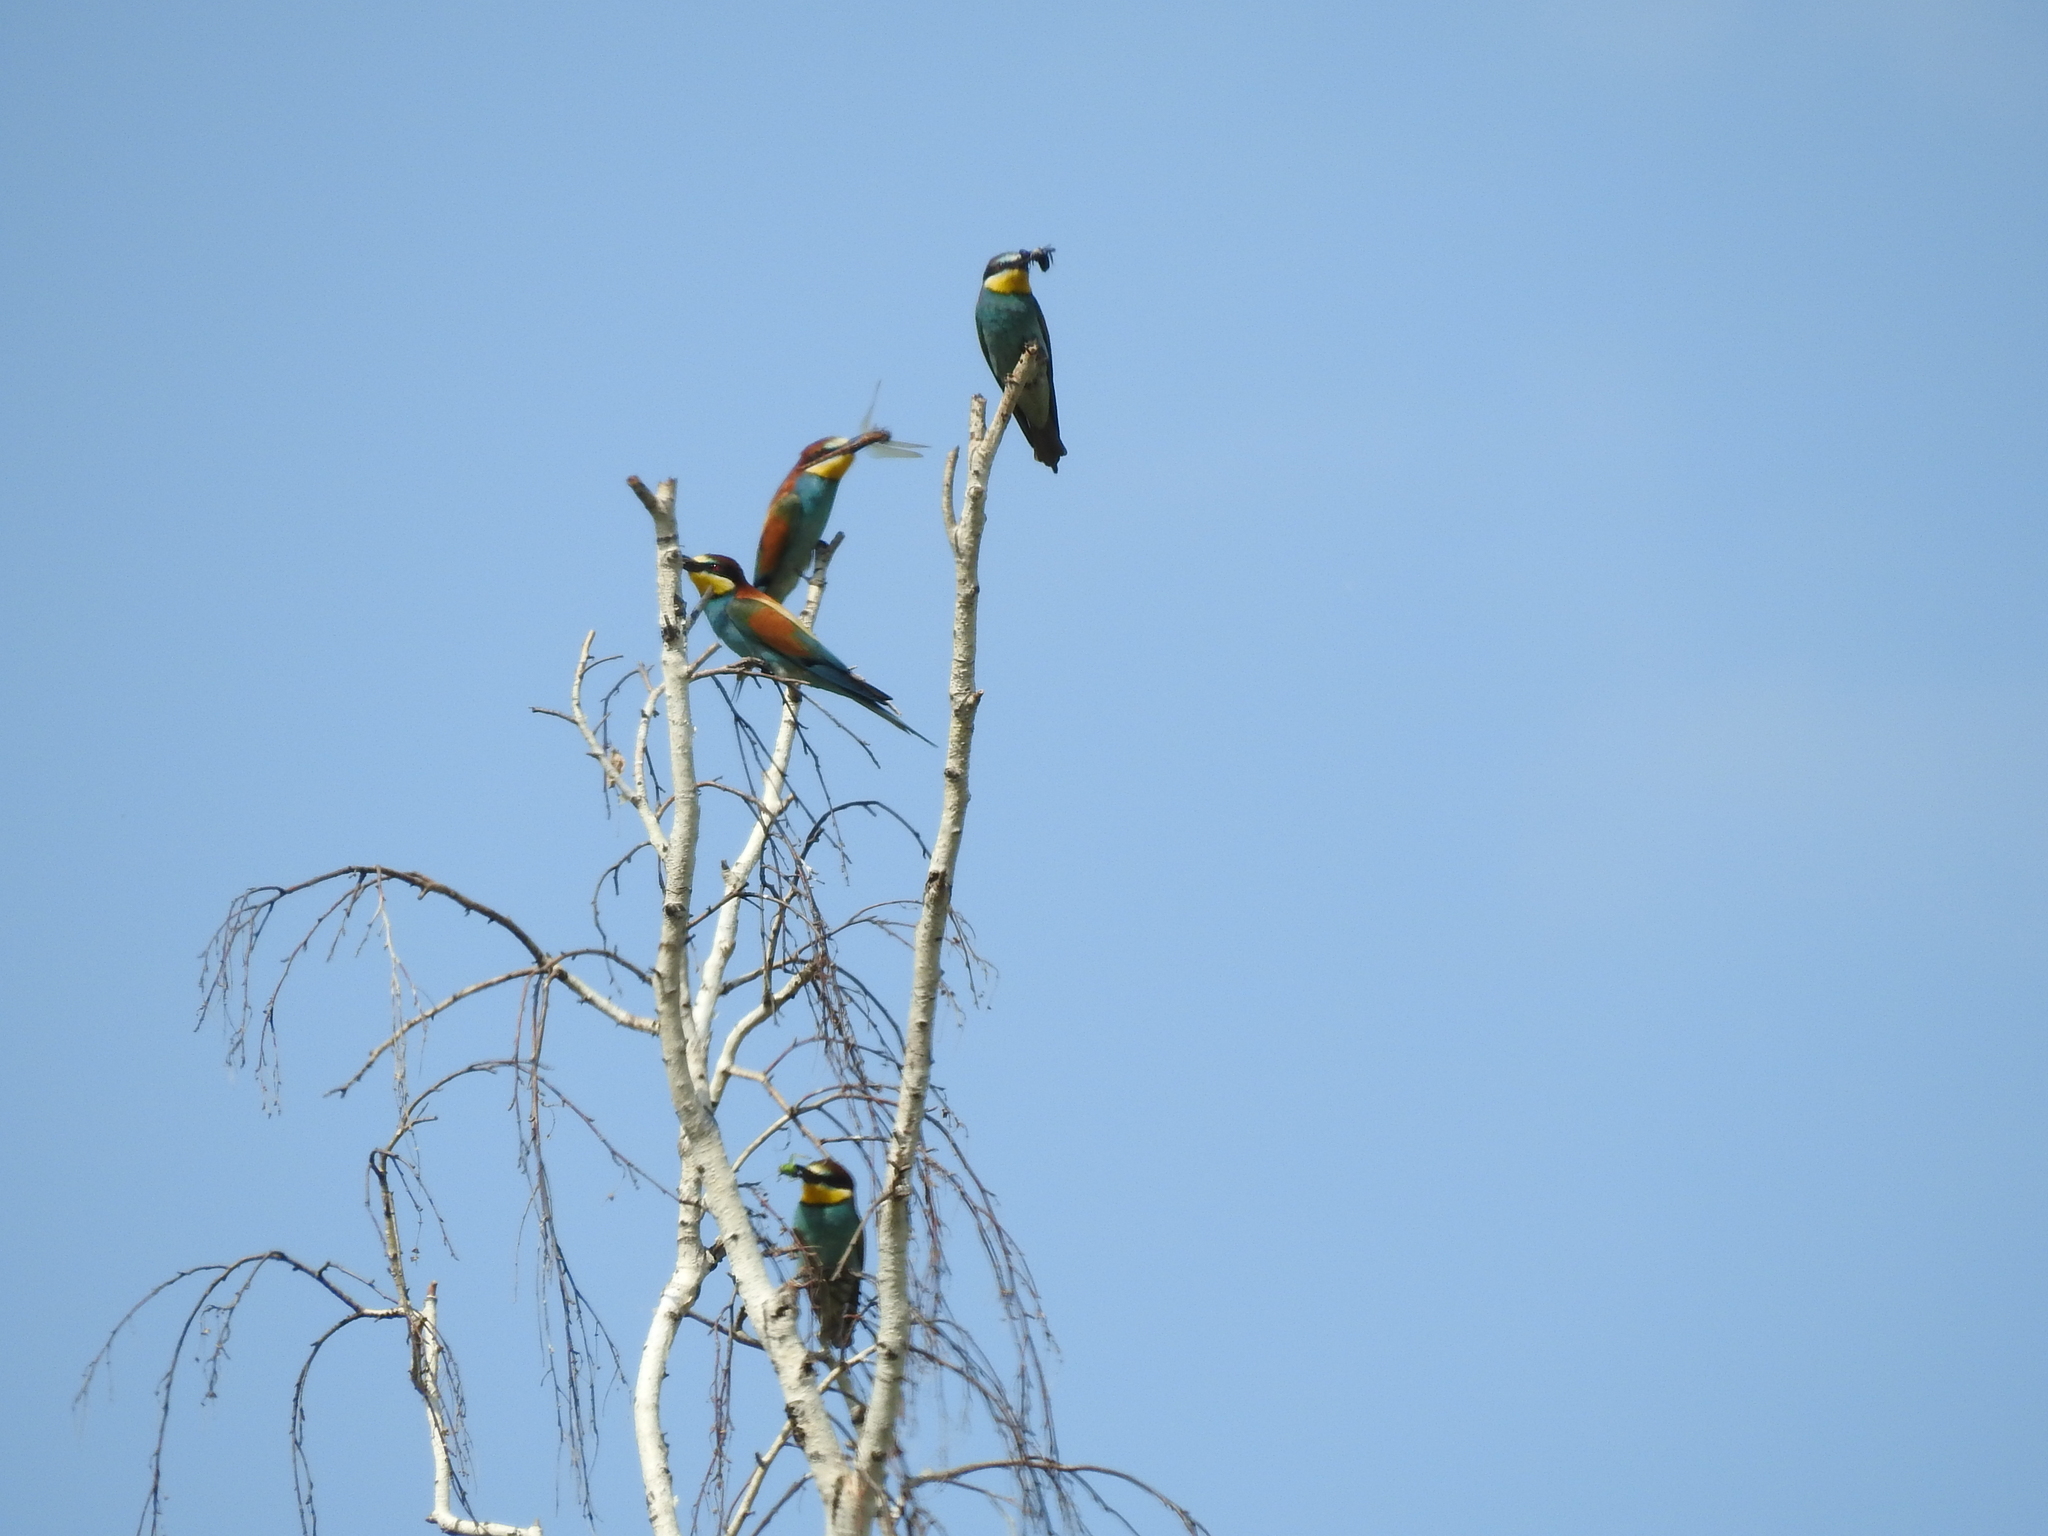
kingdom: Animalia
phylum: Chordata
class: Aves
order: Coraciiformes
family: Meropidae
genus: Merops
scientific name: Merops apiaster
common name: European bee-eater
